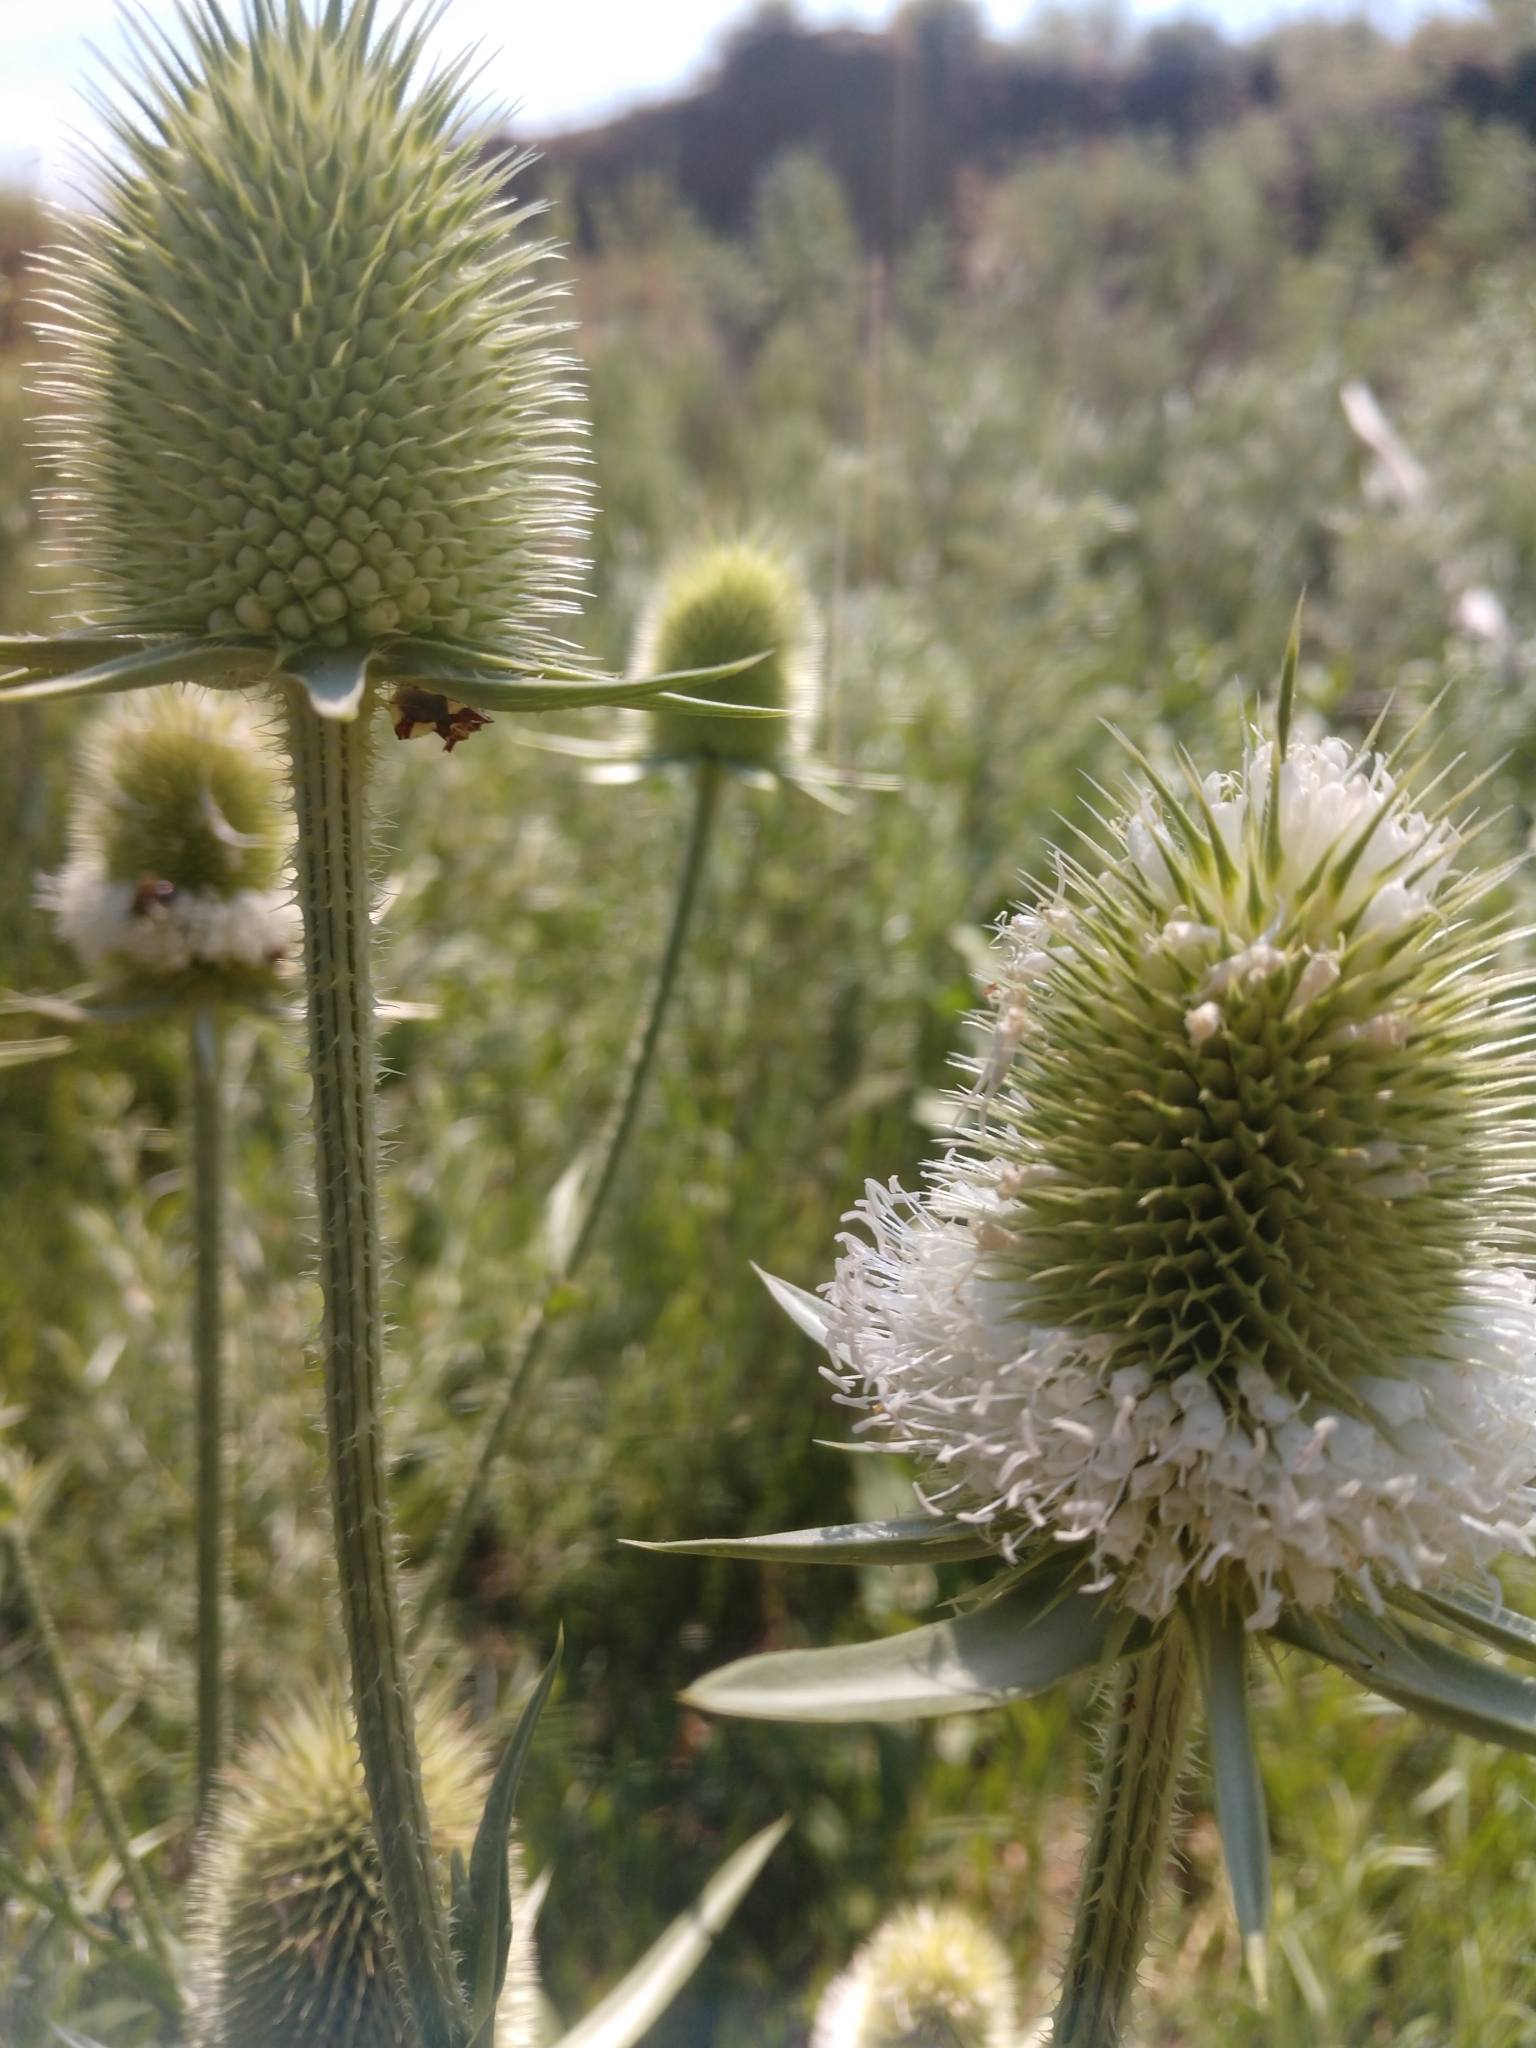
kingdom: Plantae
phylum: Tracheophyta
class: Magnoliopsida
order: Dipsacales
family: Caprifoliaceae
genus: Dipsacus
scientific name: Dipsacus laciniatus
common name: Cut-leaved teasel
